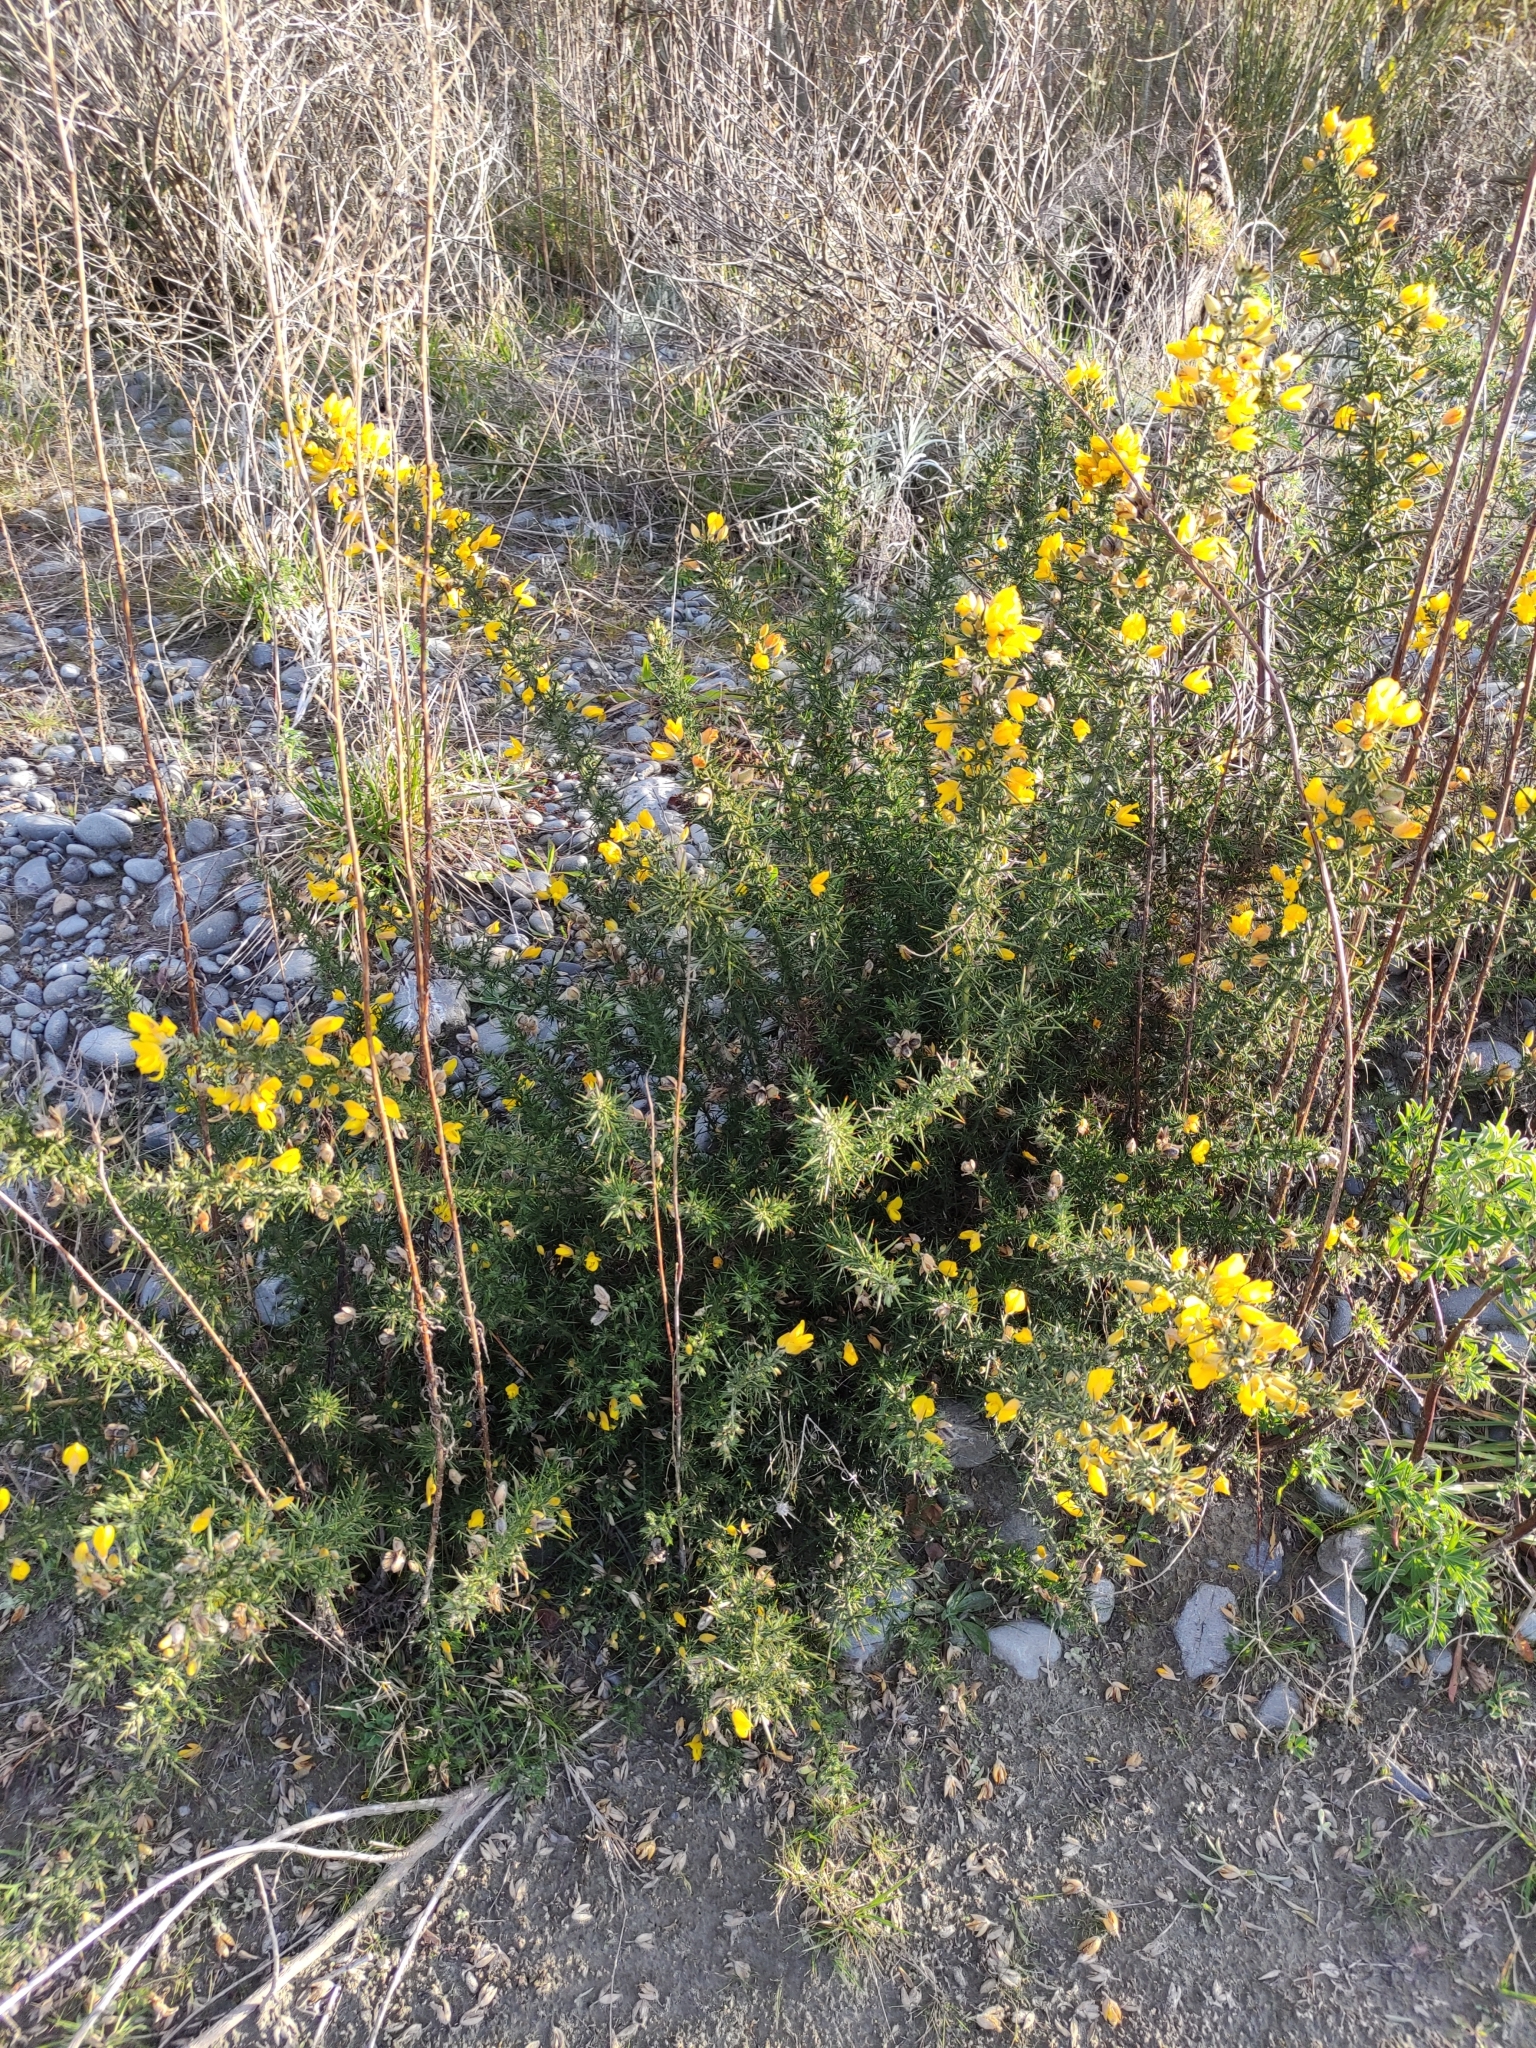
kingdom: Plantae
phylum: Tracheophyta
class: Magnoliopsida
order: Fabales
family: Fabaceae
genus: Ulex
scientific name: Ulex europaeus
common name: Common gorse
